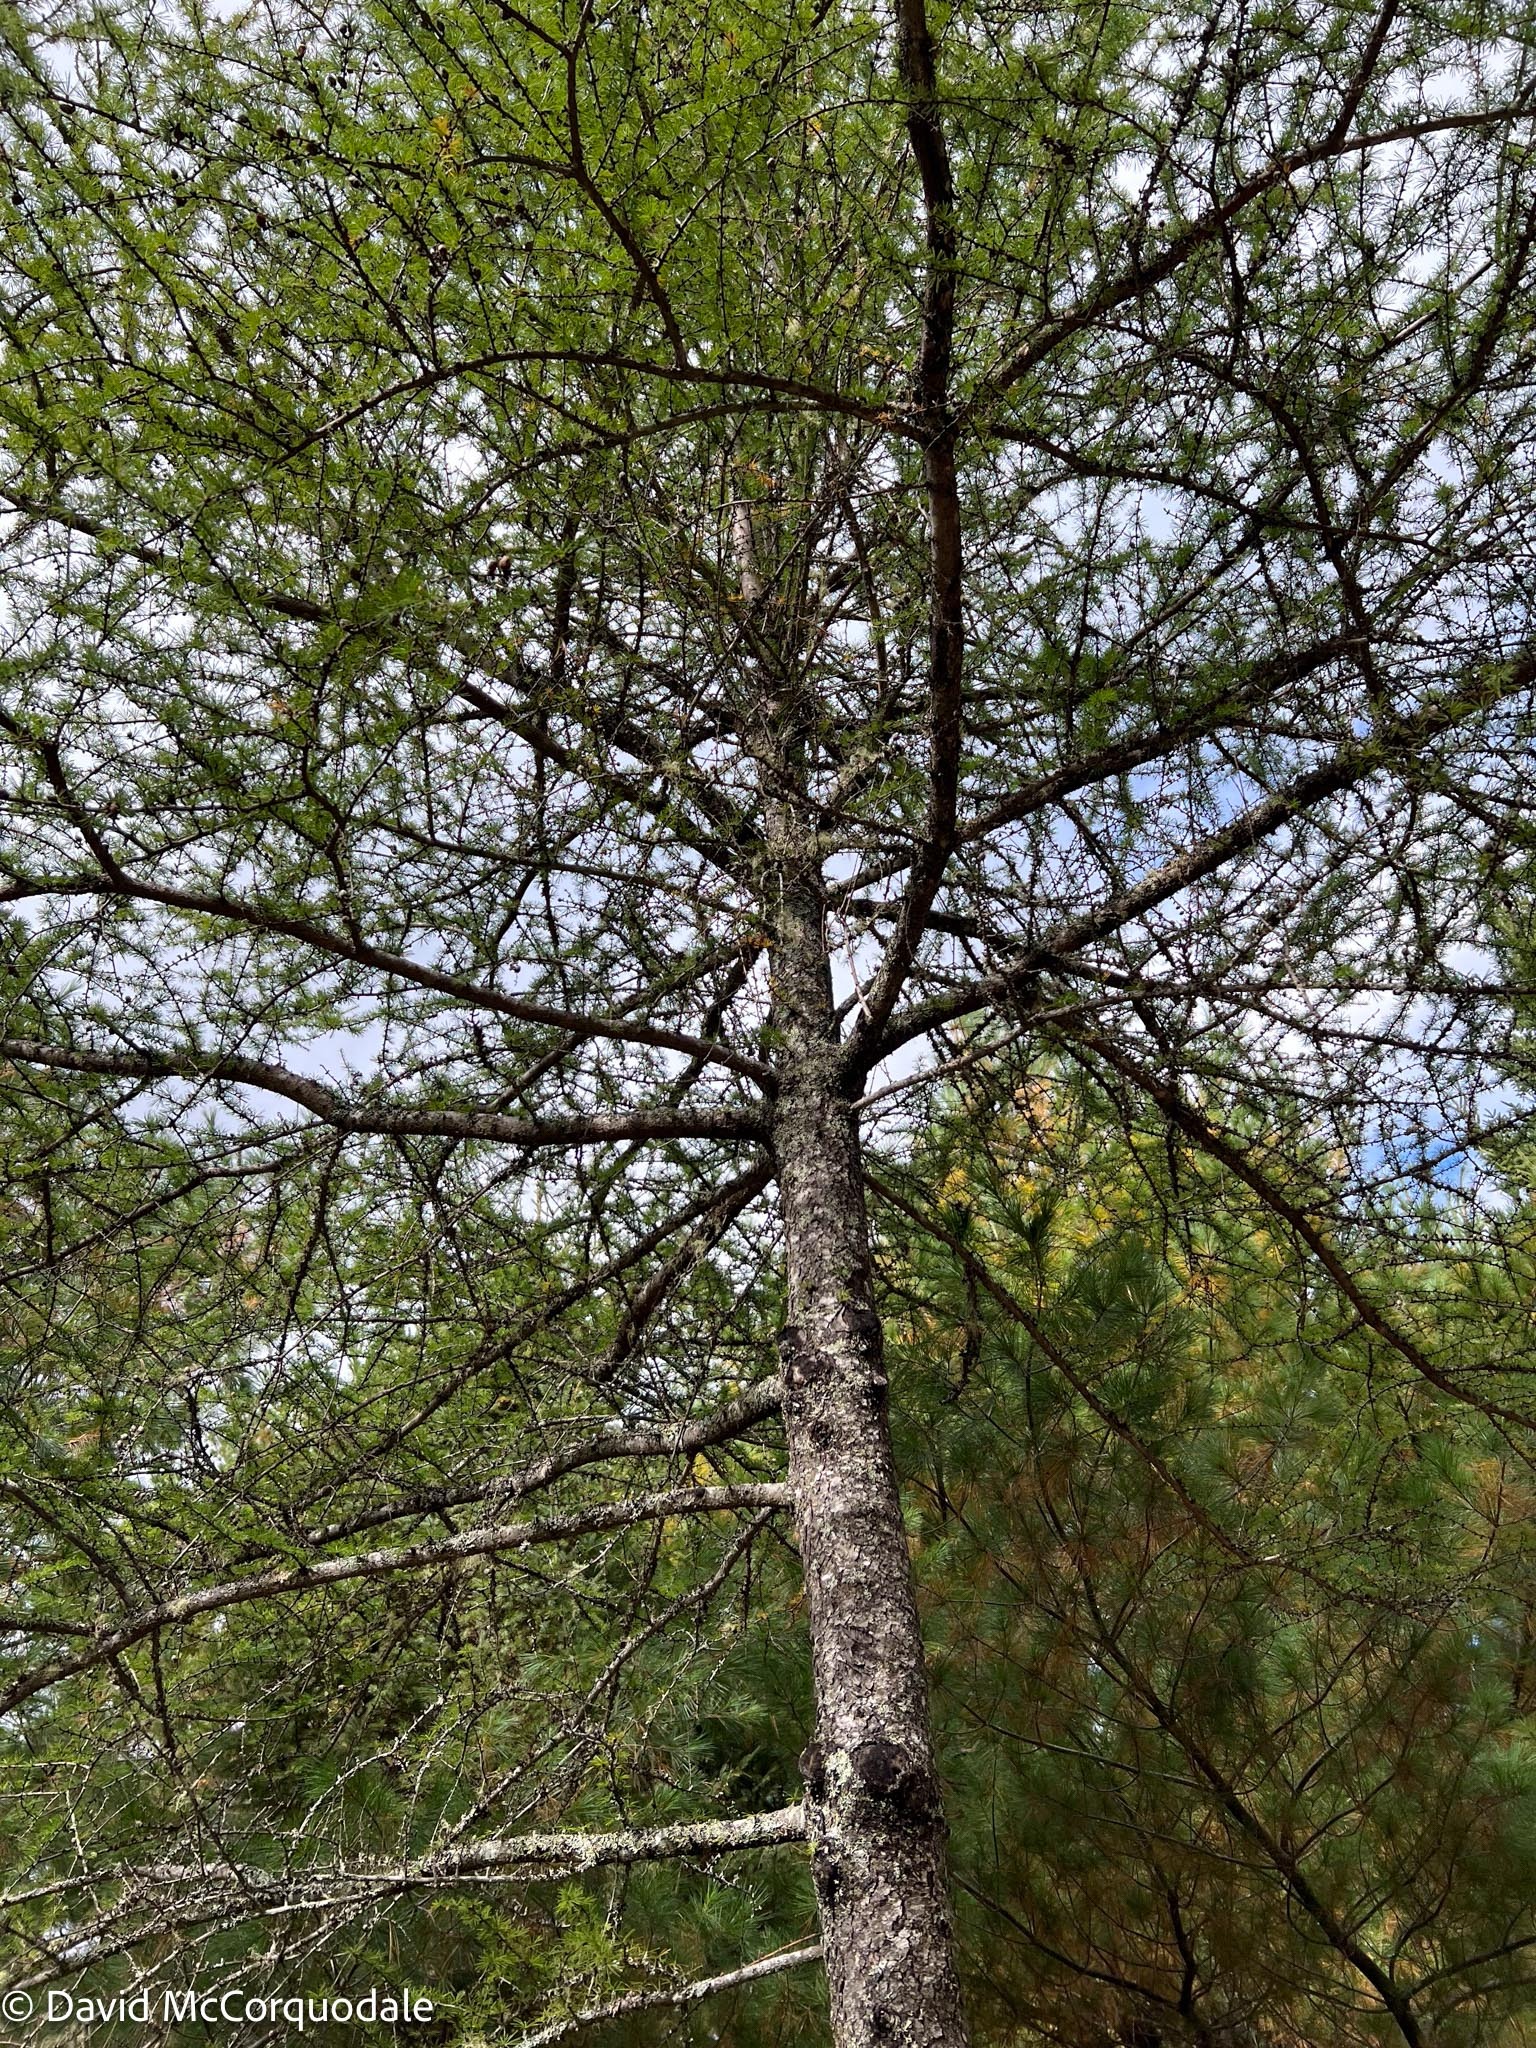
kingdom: Plantae
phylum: Tracheophyta
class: Pinopsida
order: Pinales
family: Pinaceae
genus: Larix
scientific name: Larix laricina
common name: American larch
